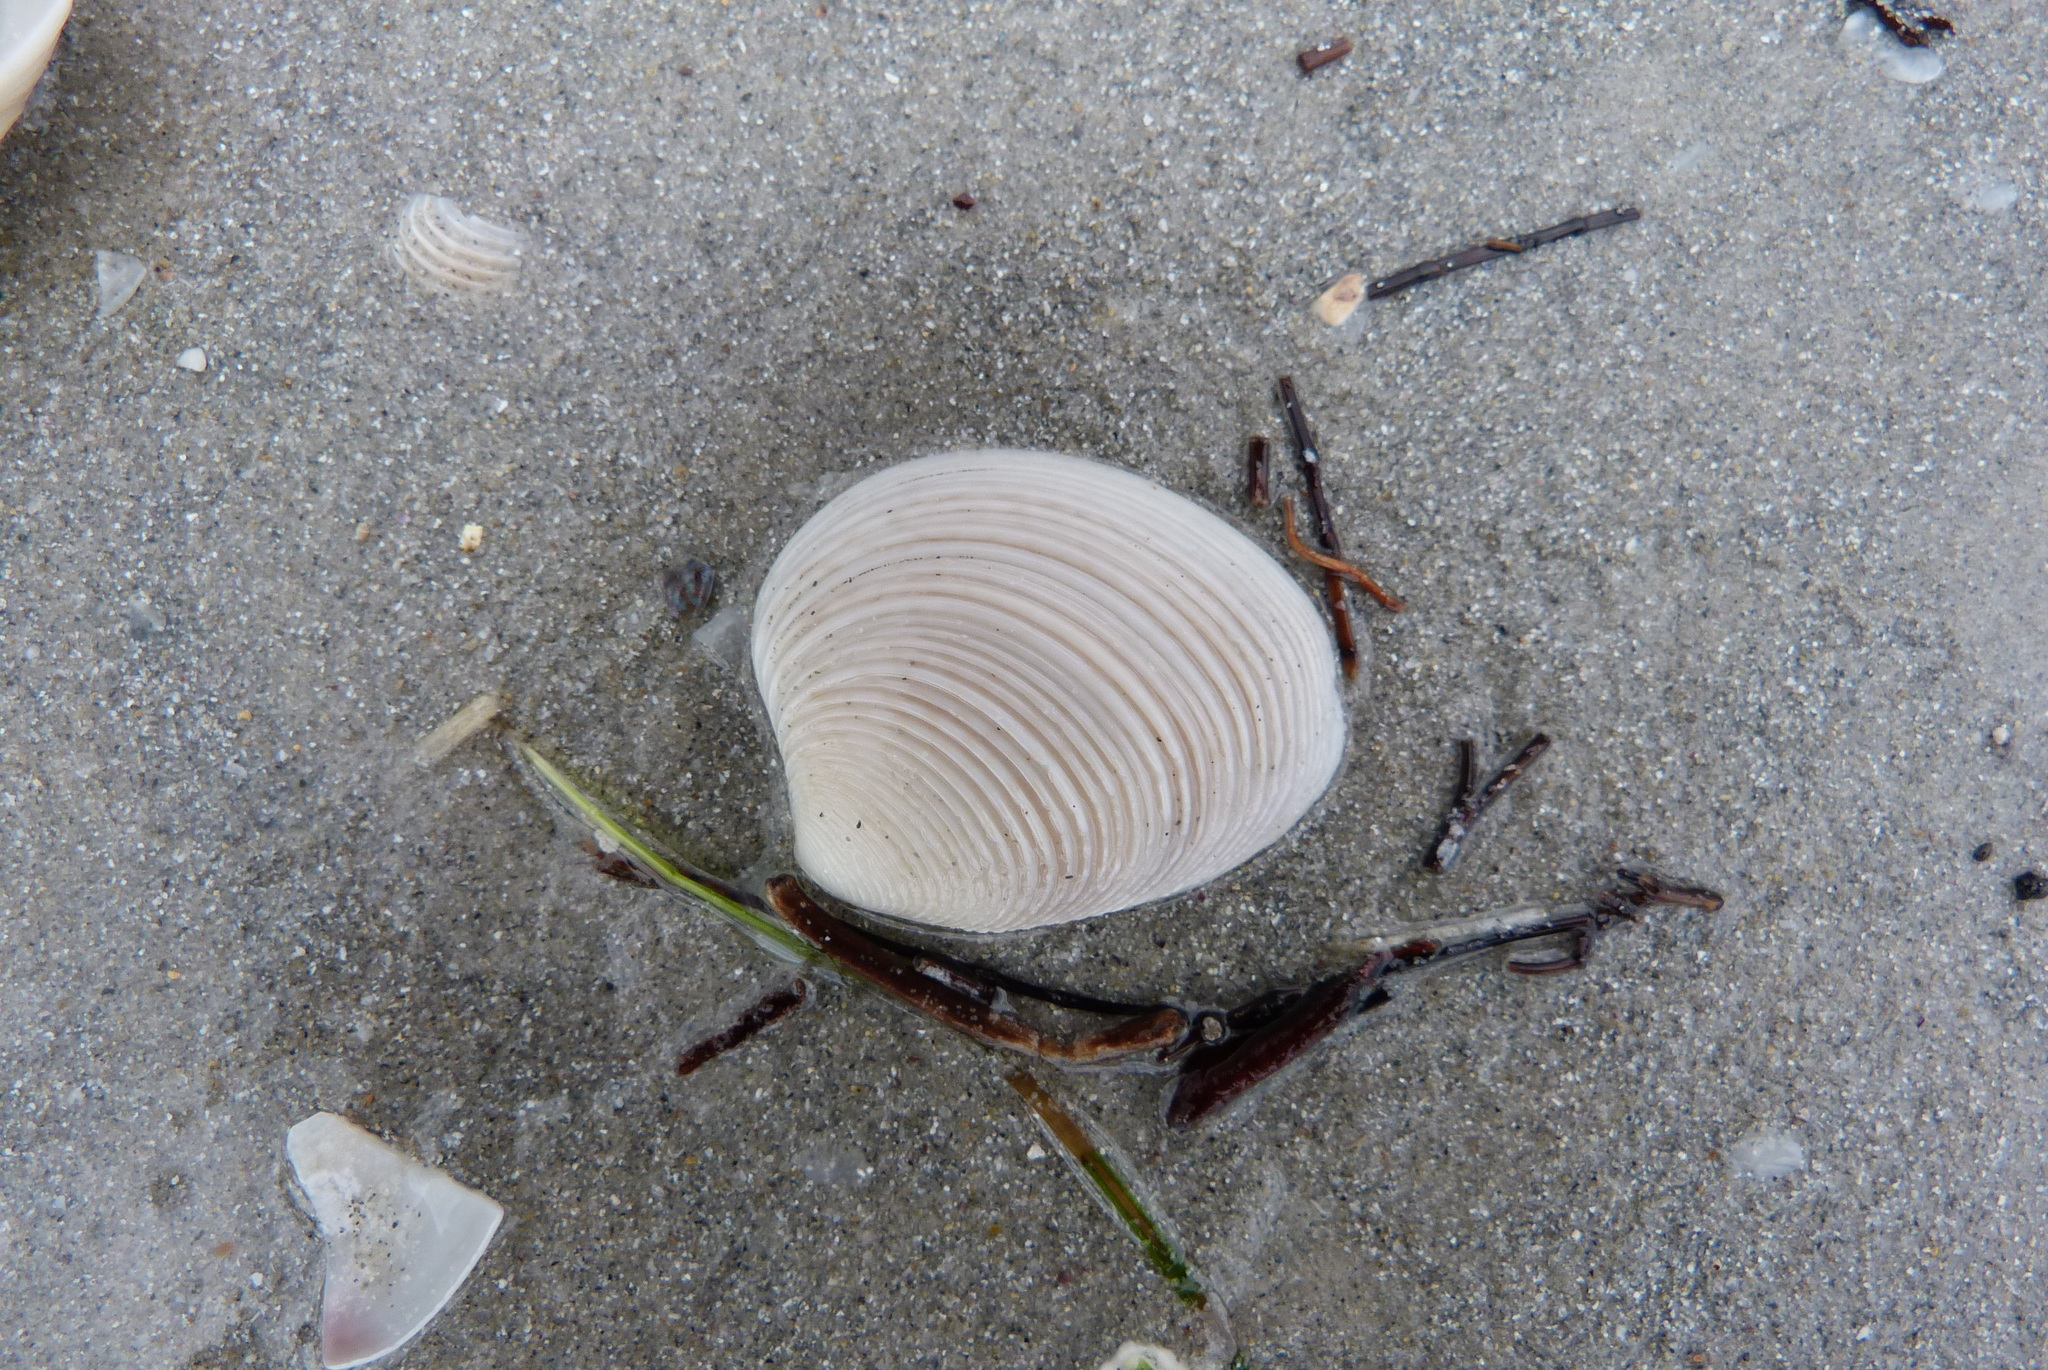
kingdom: Animalia
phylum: Mollusca
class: Bivalvia
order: Venerida
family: Veneridae
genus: Katelysia
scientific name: Katelysia scalarina
